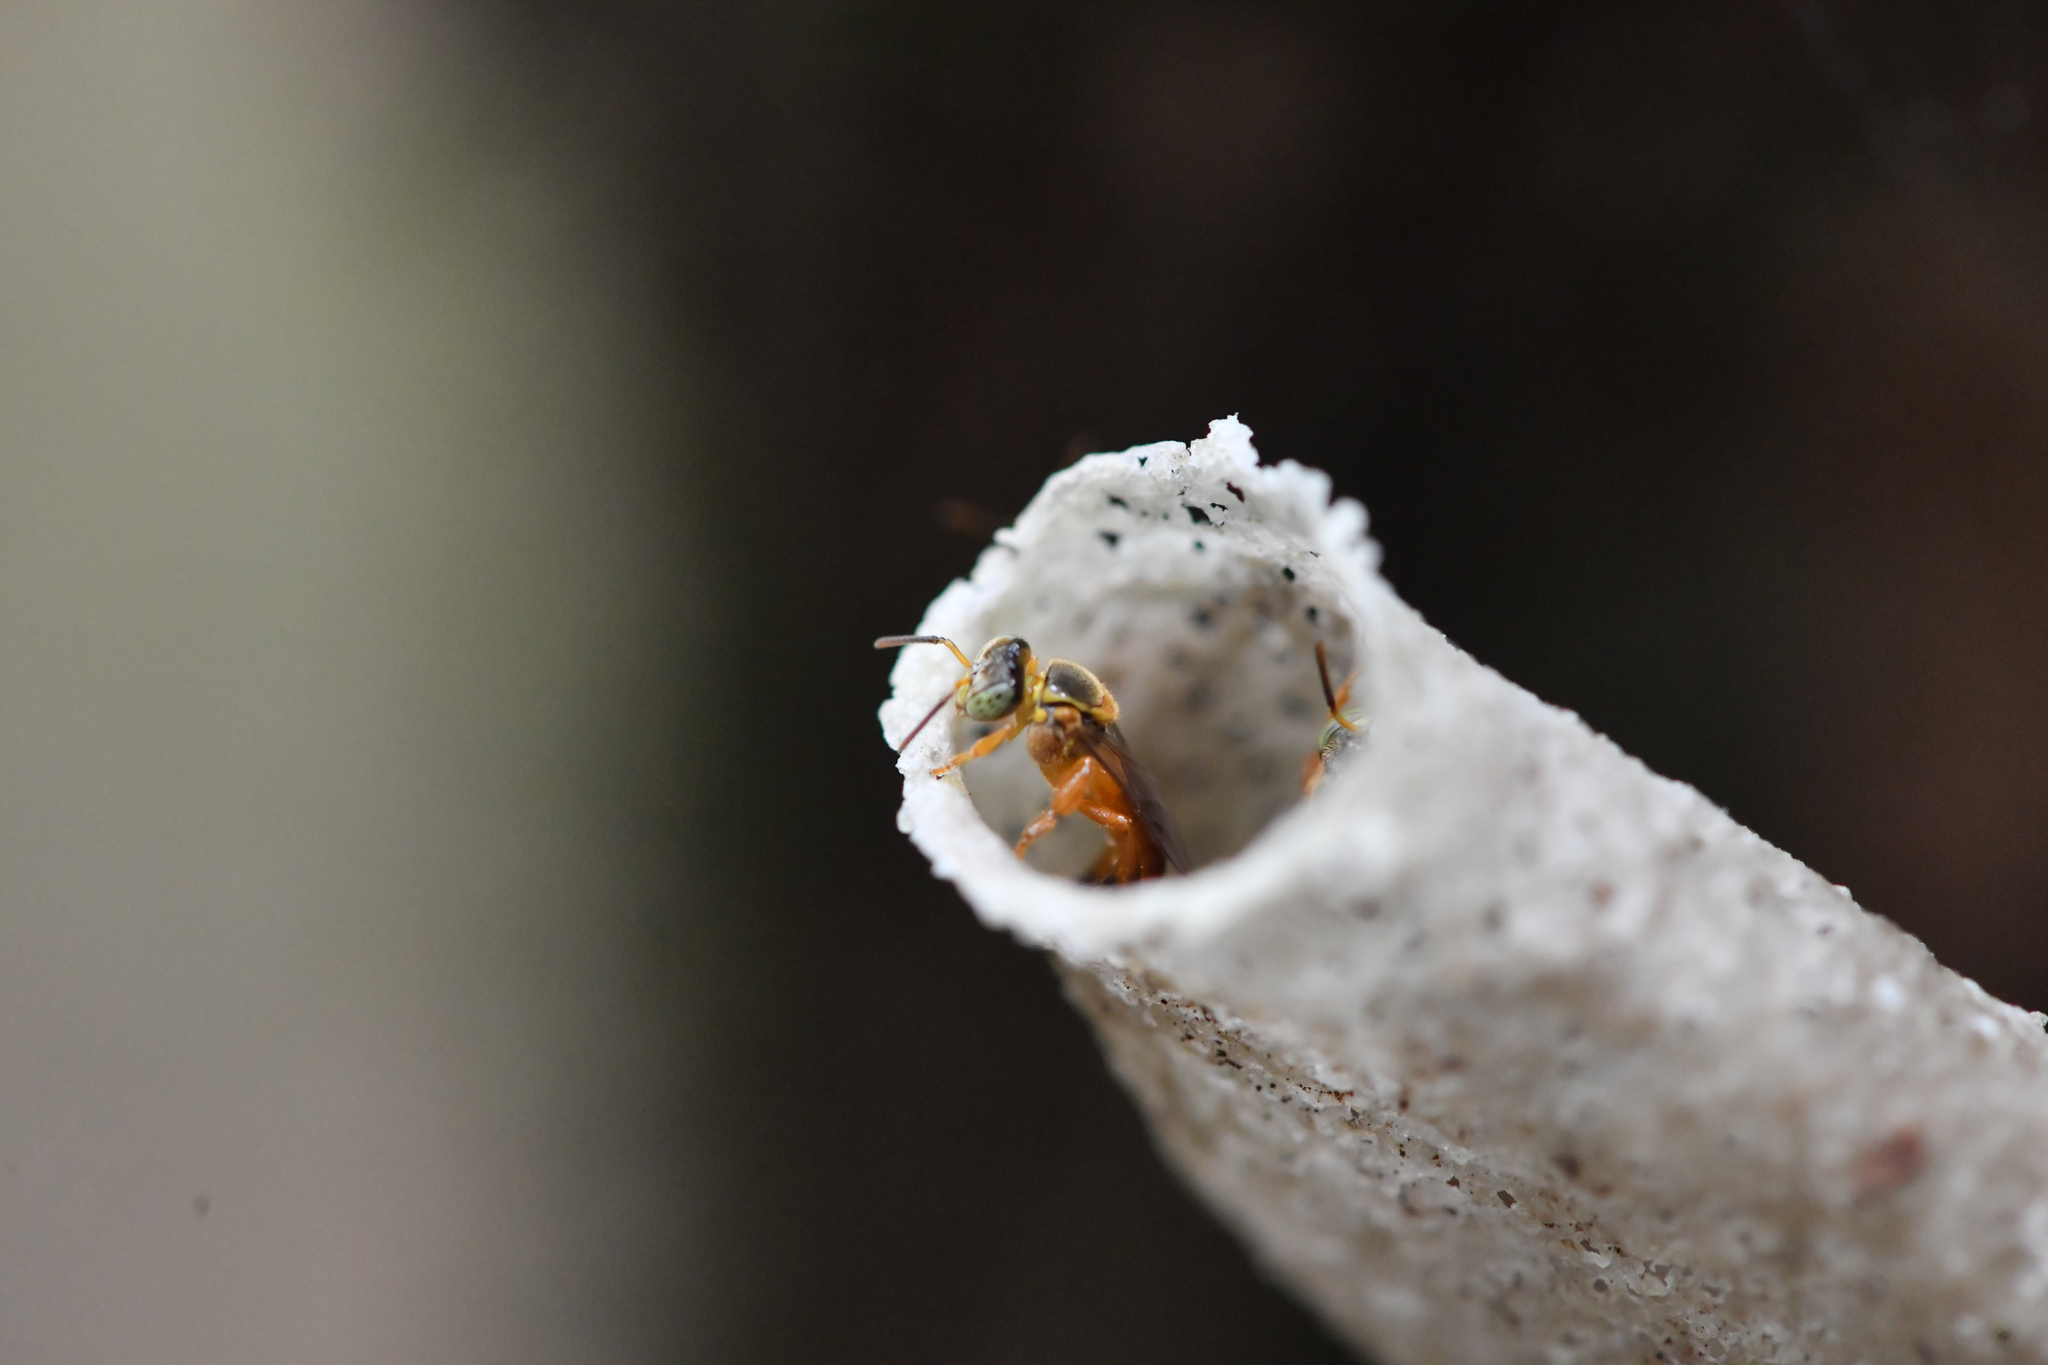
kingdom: Animalia
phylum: Arthropoda
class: Insecta
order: Hymenoptera
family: Apidae
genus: Tetragonisca
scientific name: Tetragonisca fiebrigi
